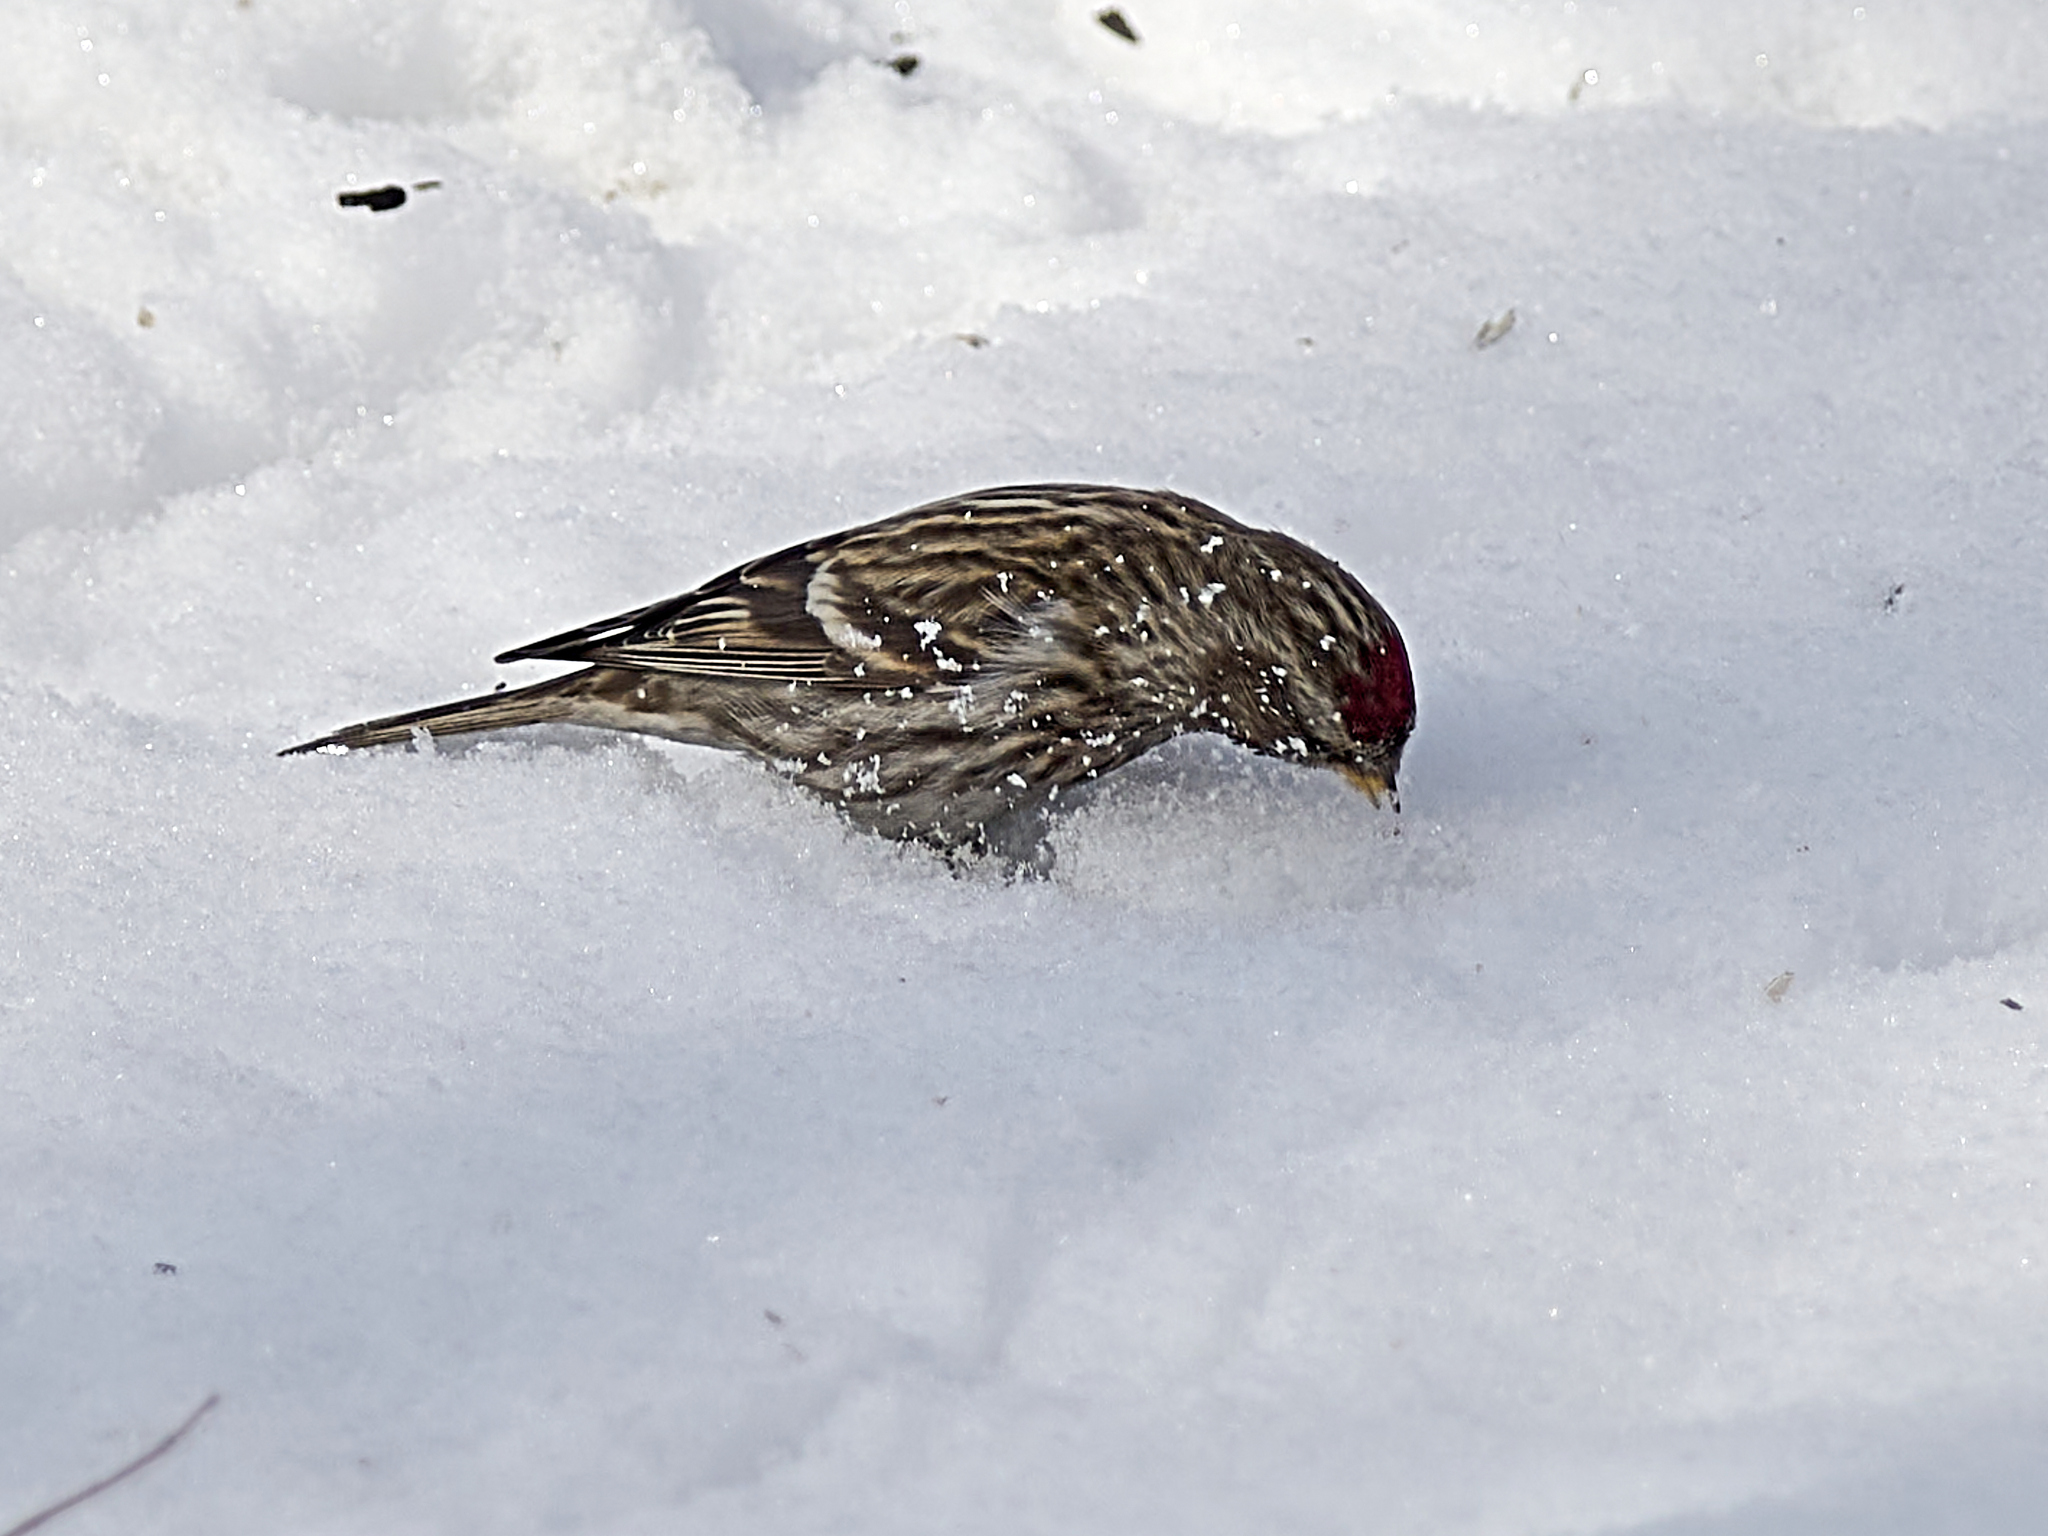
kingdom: Animalia
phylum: Chordata
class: Aves
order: Passeriformes
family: Fringillidae
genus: Acanthis
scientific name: Acanthis flammea
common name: Common redpoll
